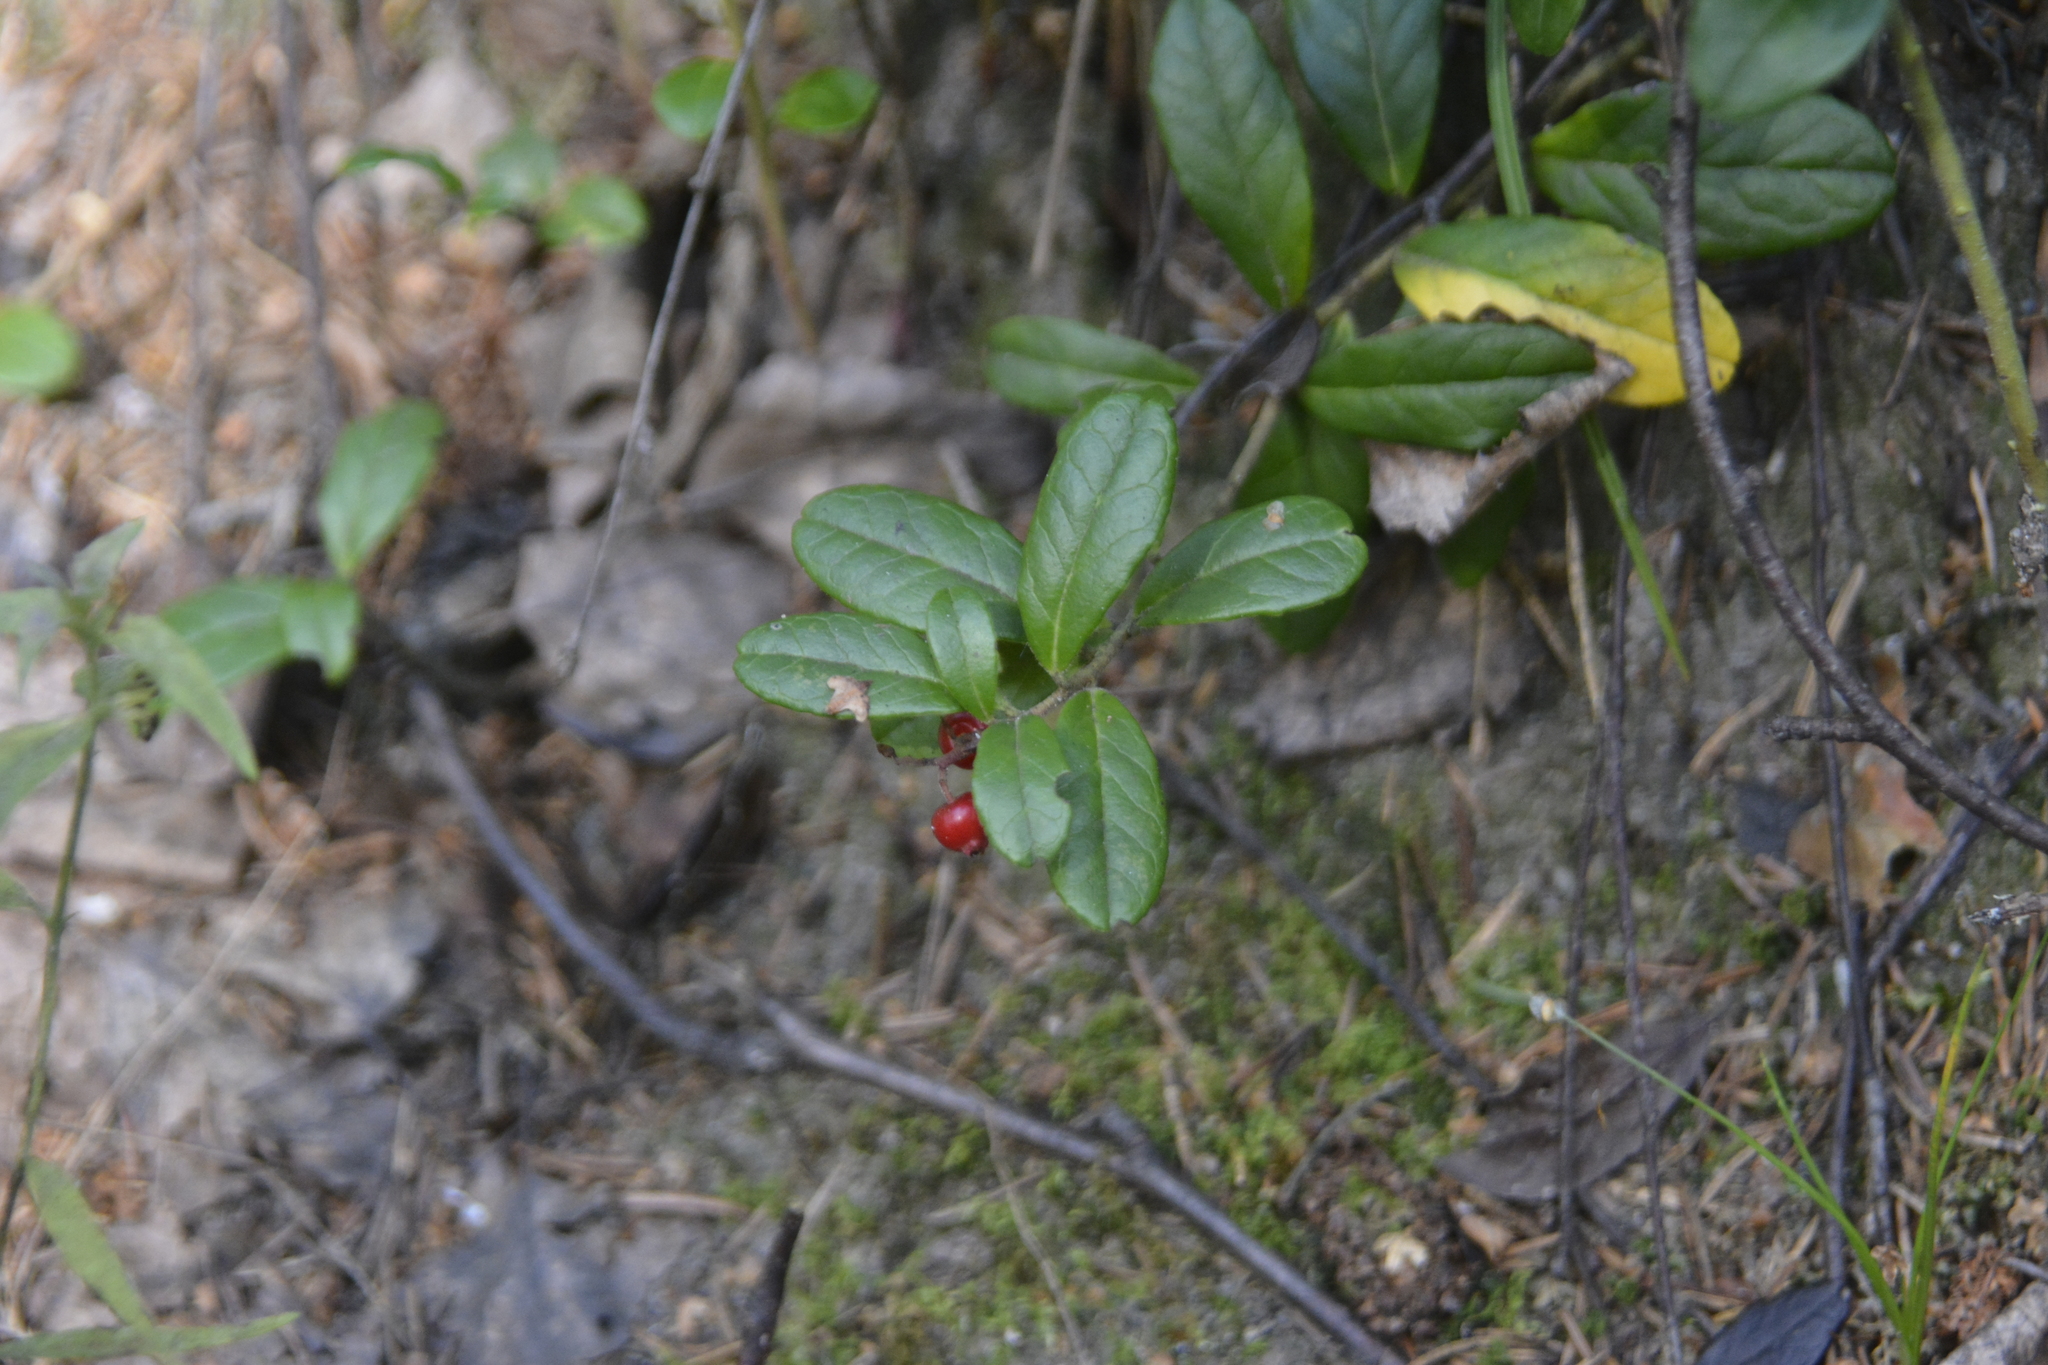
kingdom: Plantae
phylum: Tracheophyta
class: Magnoliopsida
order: Ericales
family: Ericaceae
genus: Vaccinium
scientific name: Vaccinium vitis-idaea
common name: Cowberry
